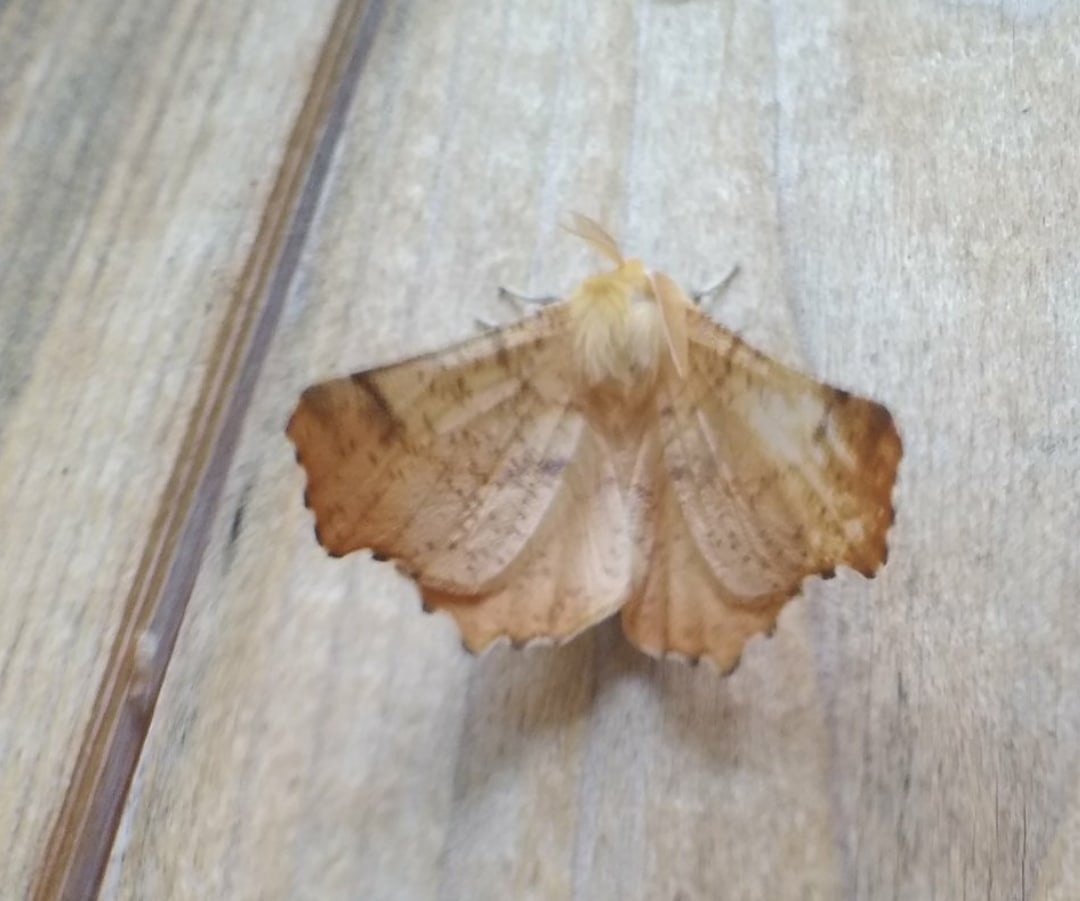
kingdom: Animalia
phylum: Arthropoda
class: Insecta
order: Lepidoptera
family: Geometridae
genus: Ennomos
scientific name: Ennomos autumnaria
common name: Large thorn
